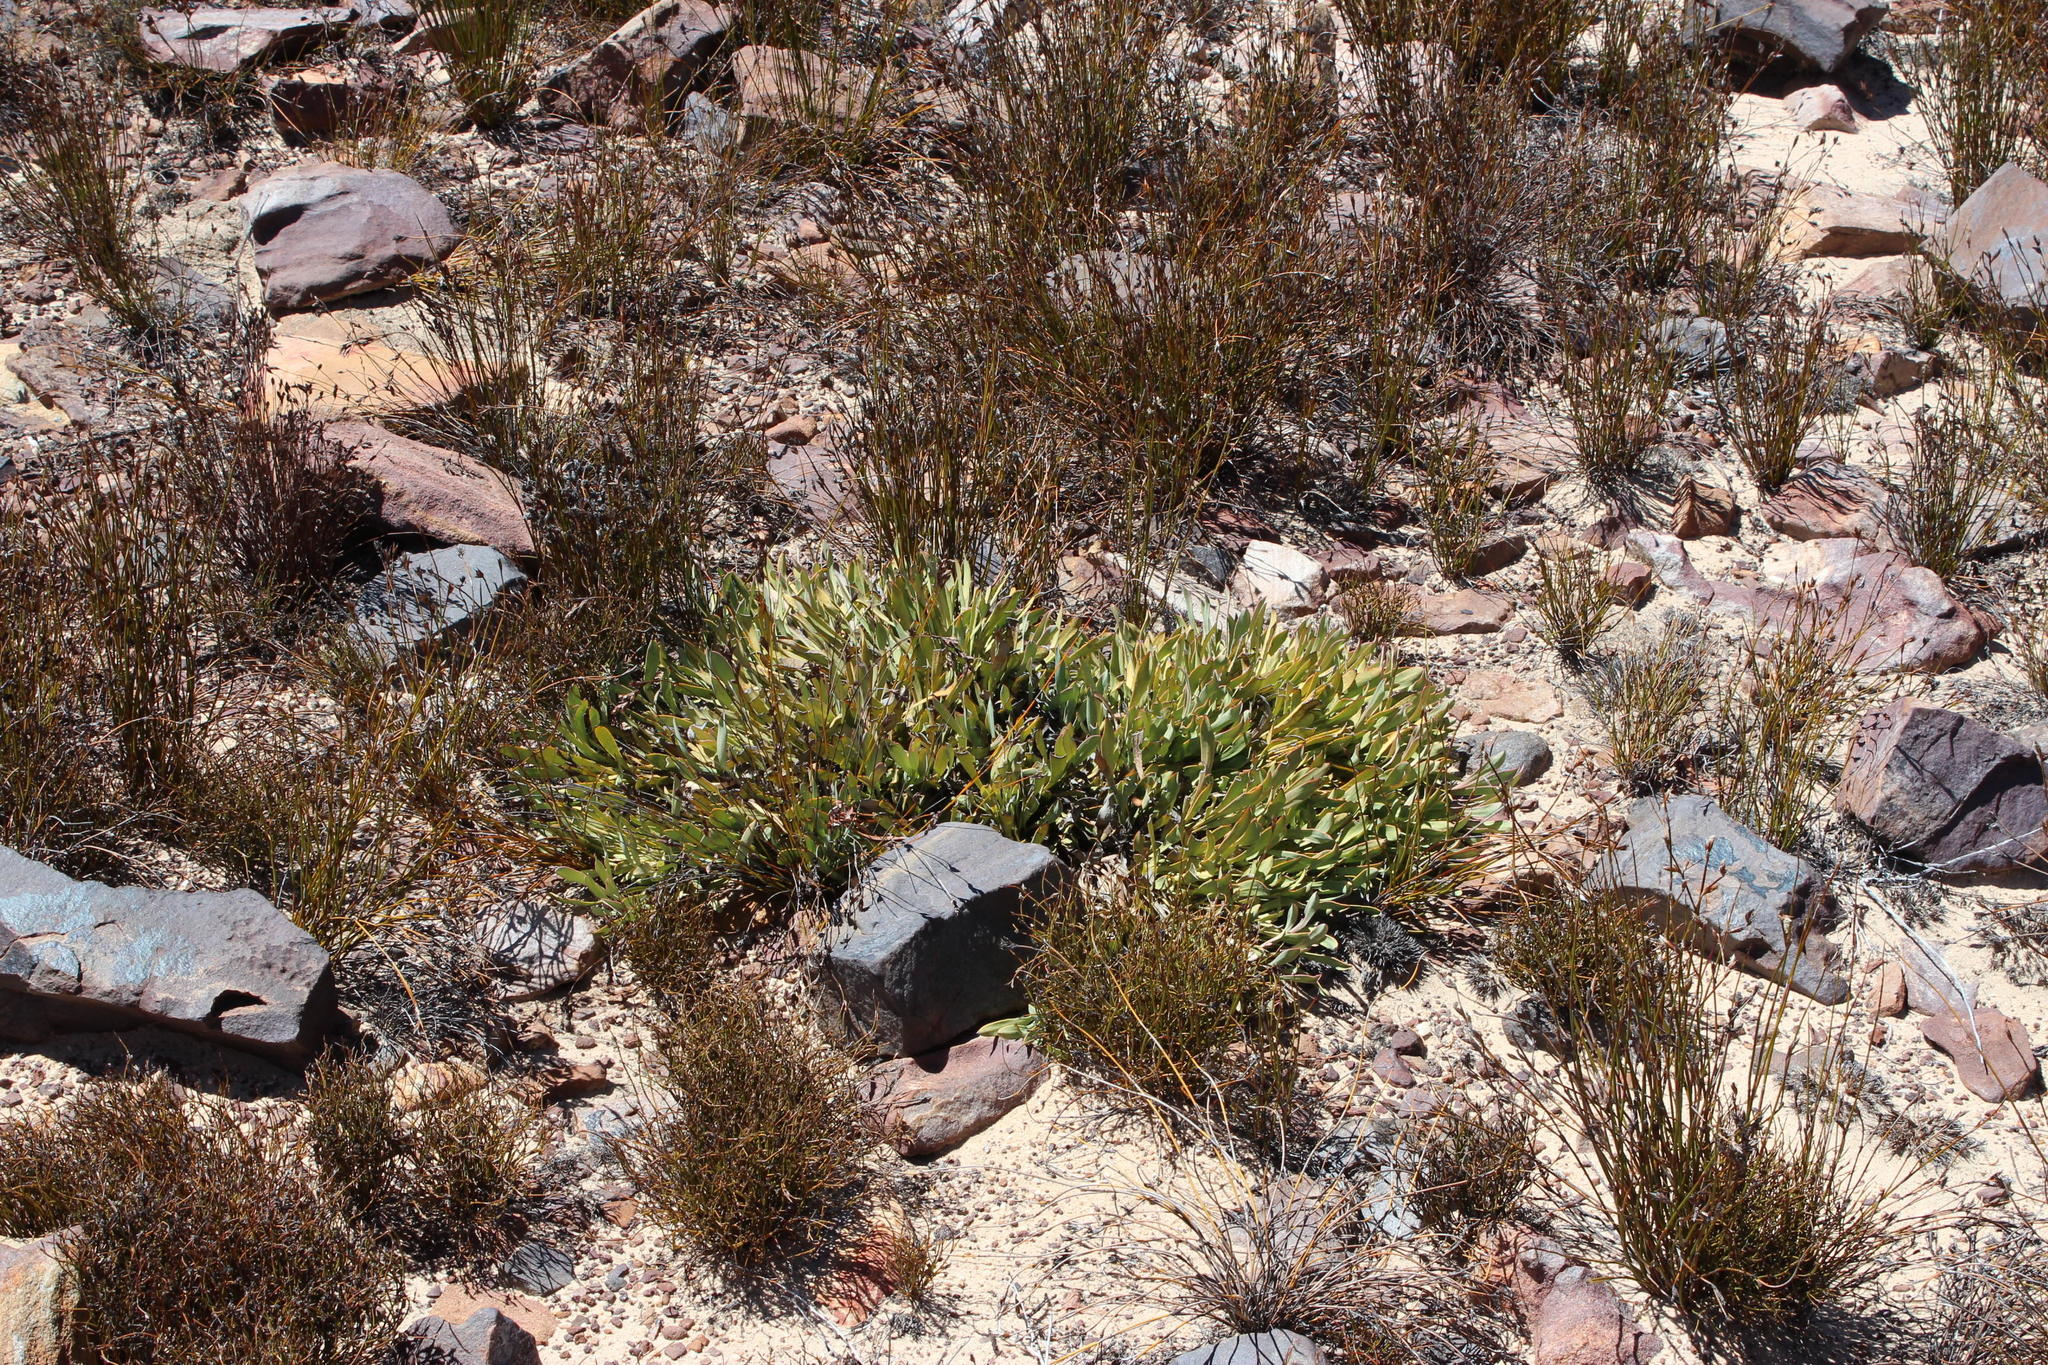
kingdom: Plantae
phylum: Tracheophyta
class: Magnoliopsida
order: Proteales
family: Proteaceae
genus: Protea
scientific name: Protea laevis
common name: Smooth-leaf sugarbush
